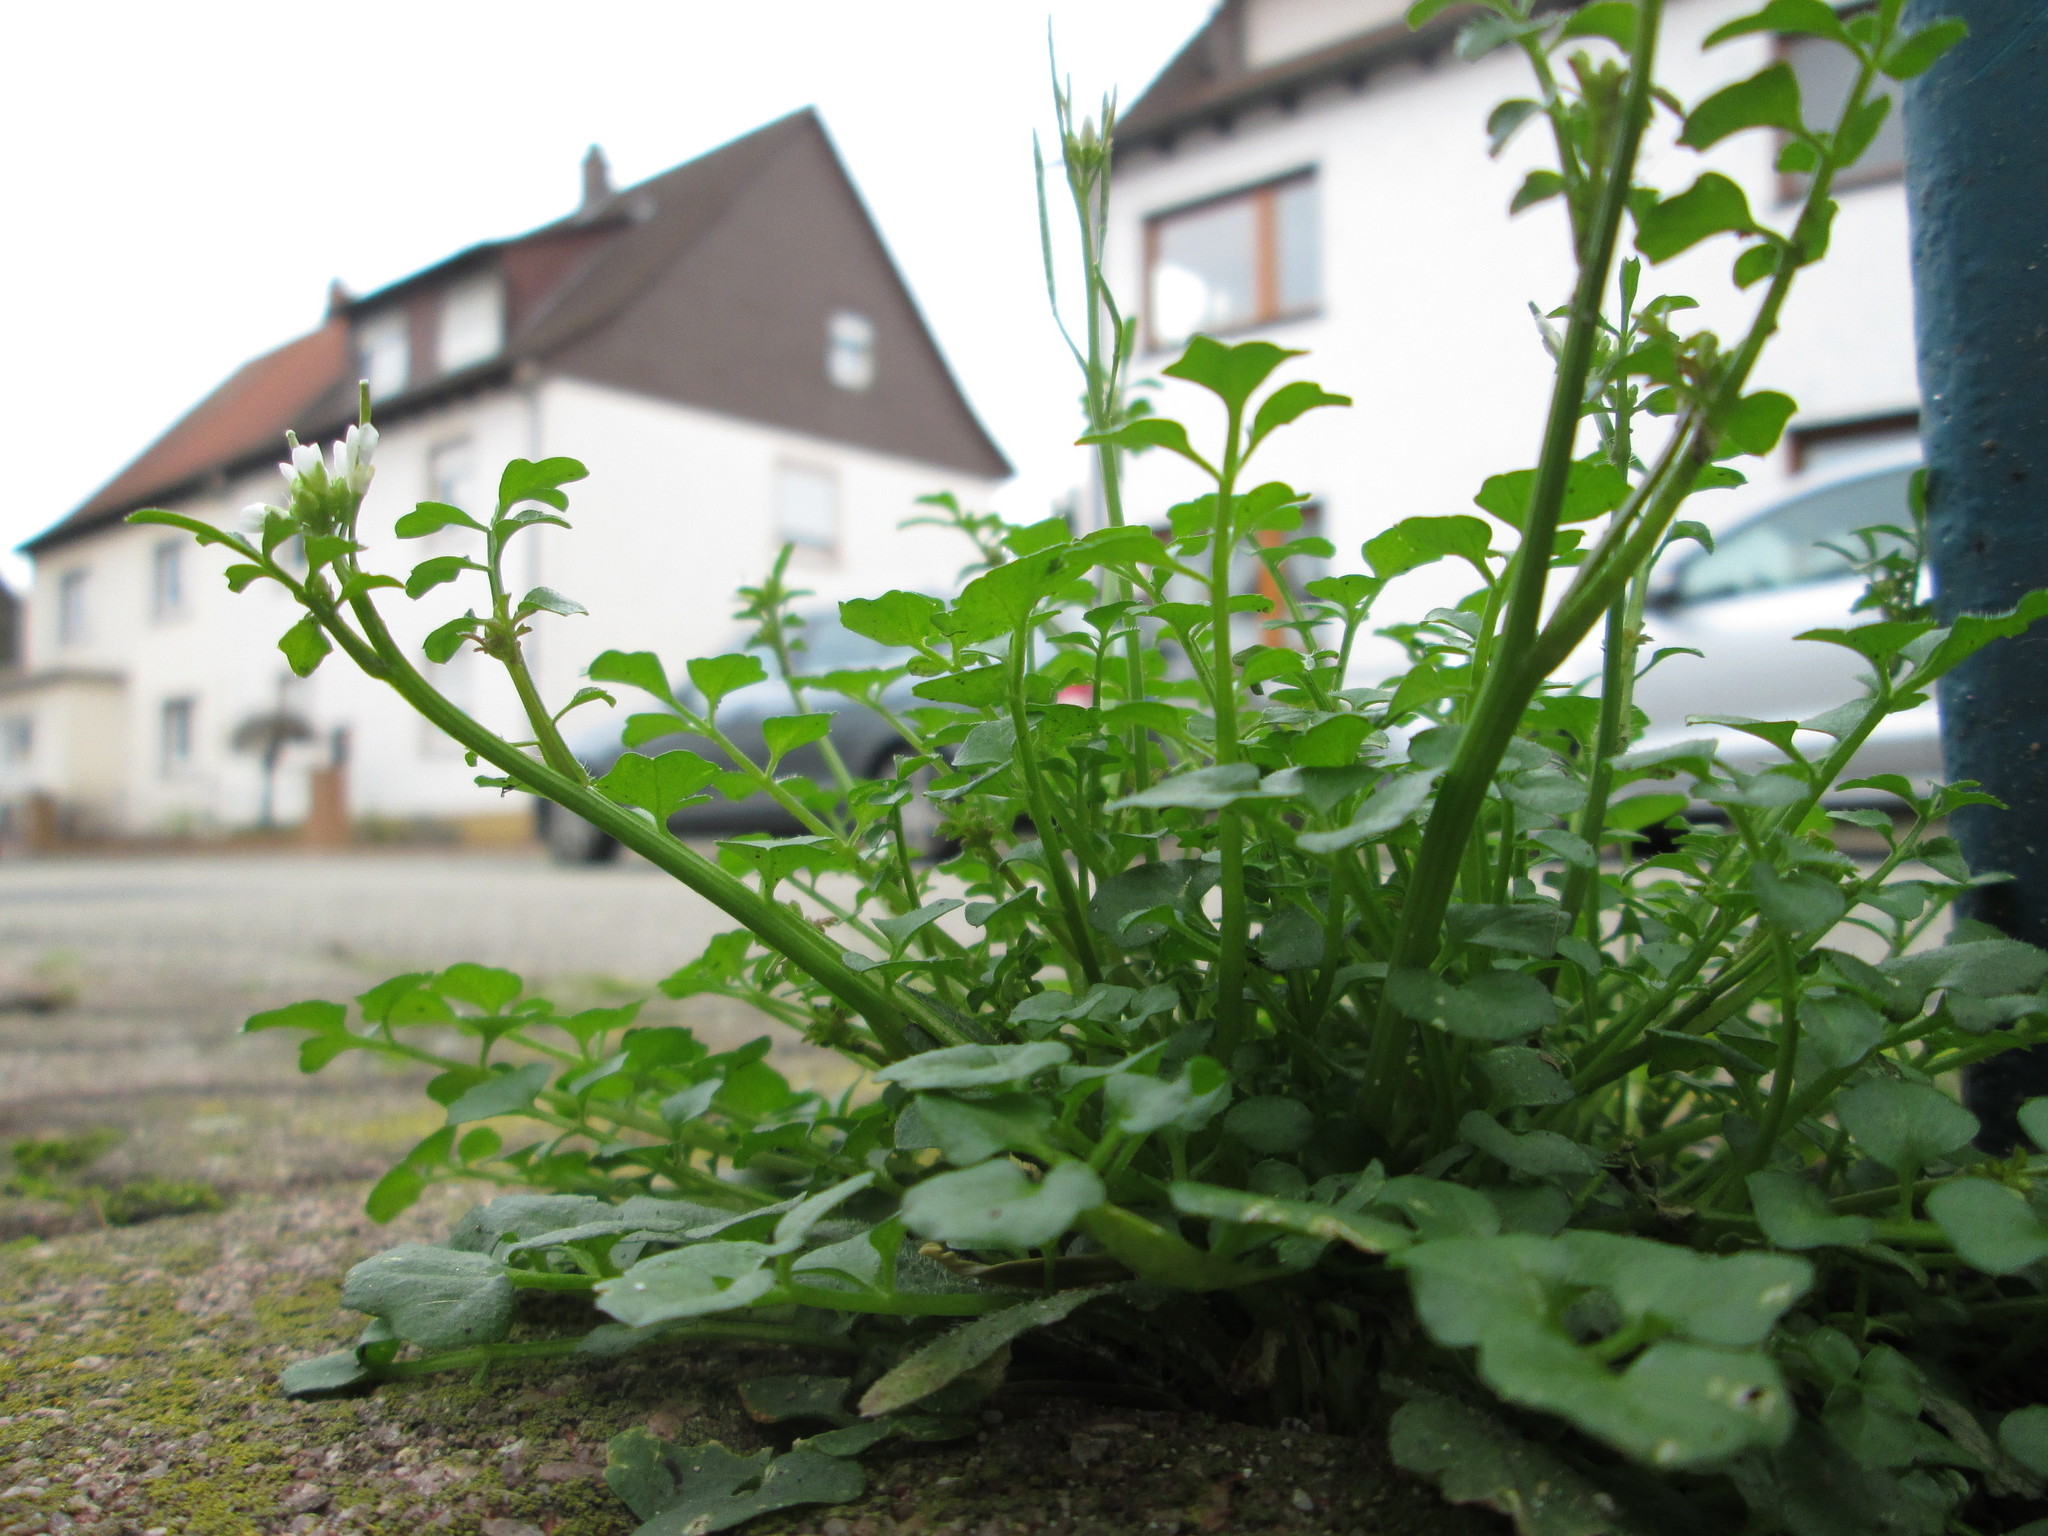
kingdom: Plantae
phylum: Tracheophyta
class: Magnoliopsida
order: Brassicales
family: Brassicaceae
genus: Cardamine
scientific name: Cardamine hirsuta
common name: Hairy bittercress
